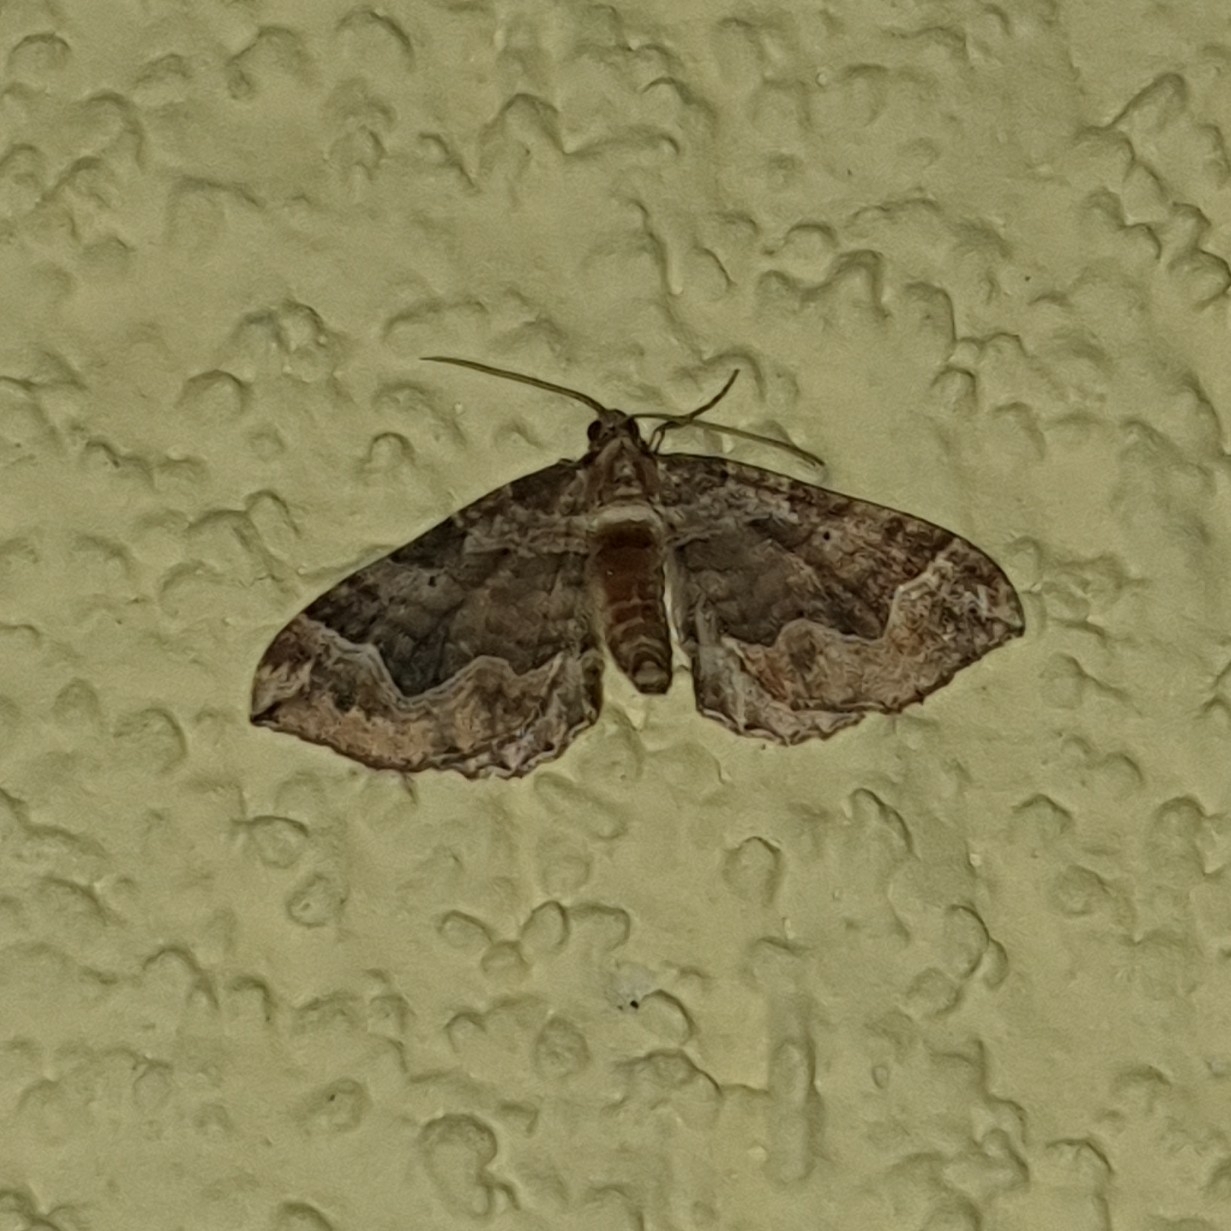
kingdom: Animalia
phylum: Arthropoda
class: Insecta
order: Lepidoptera
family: Geometridae
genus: Pelurga
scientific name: Pelurga comitata
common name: Dark spinach
